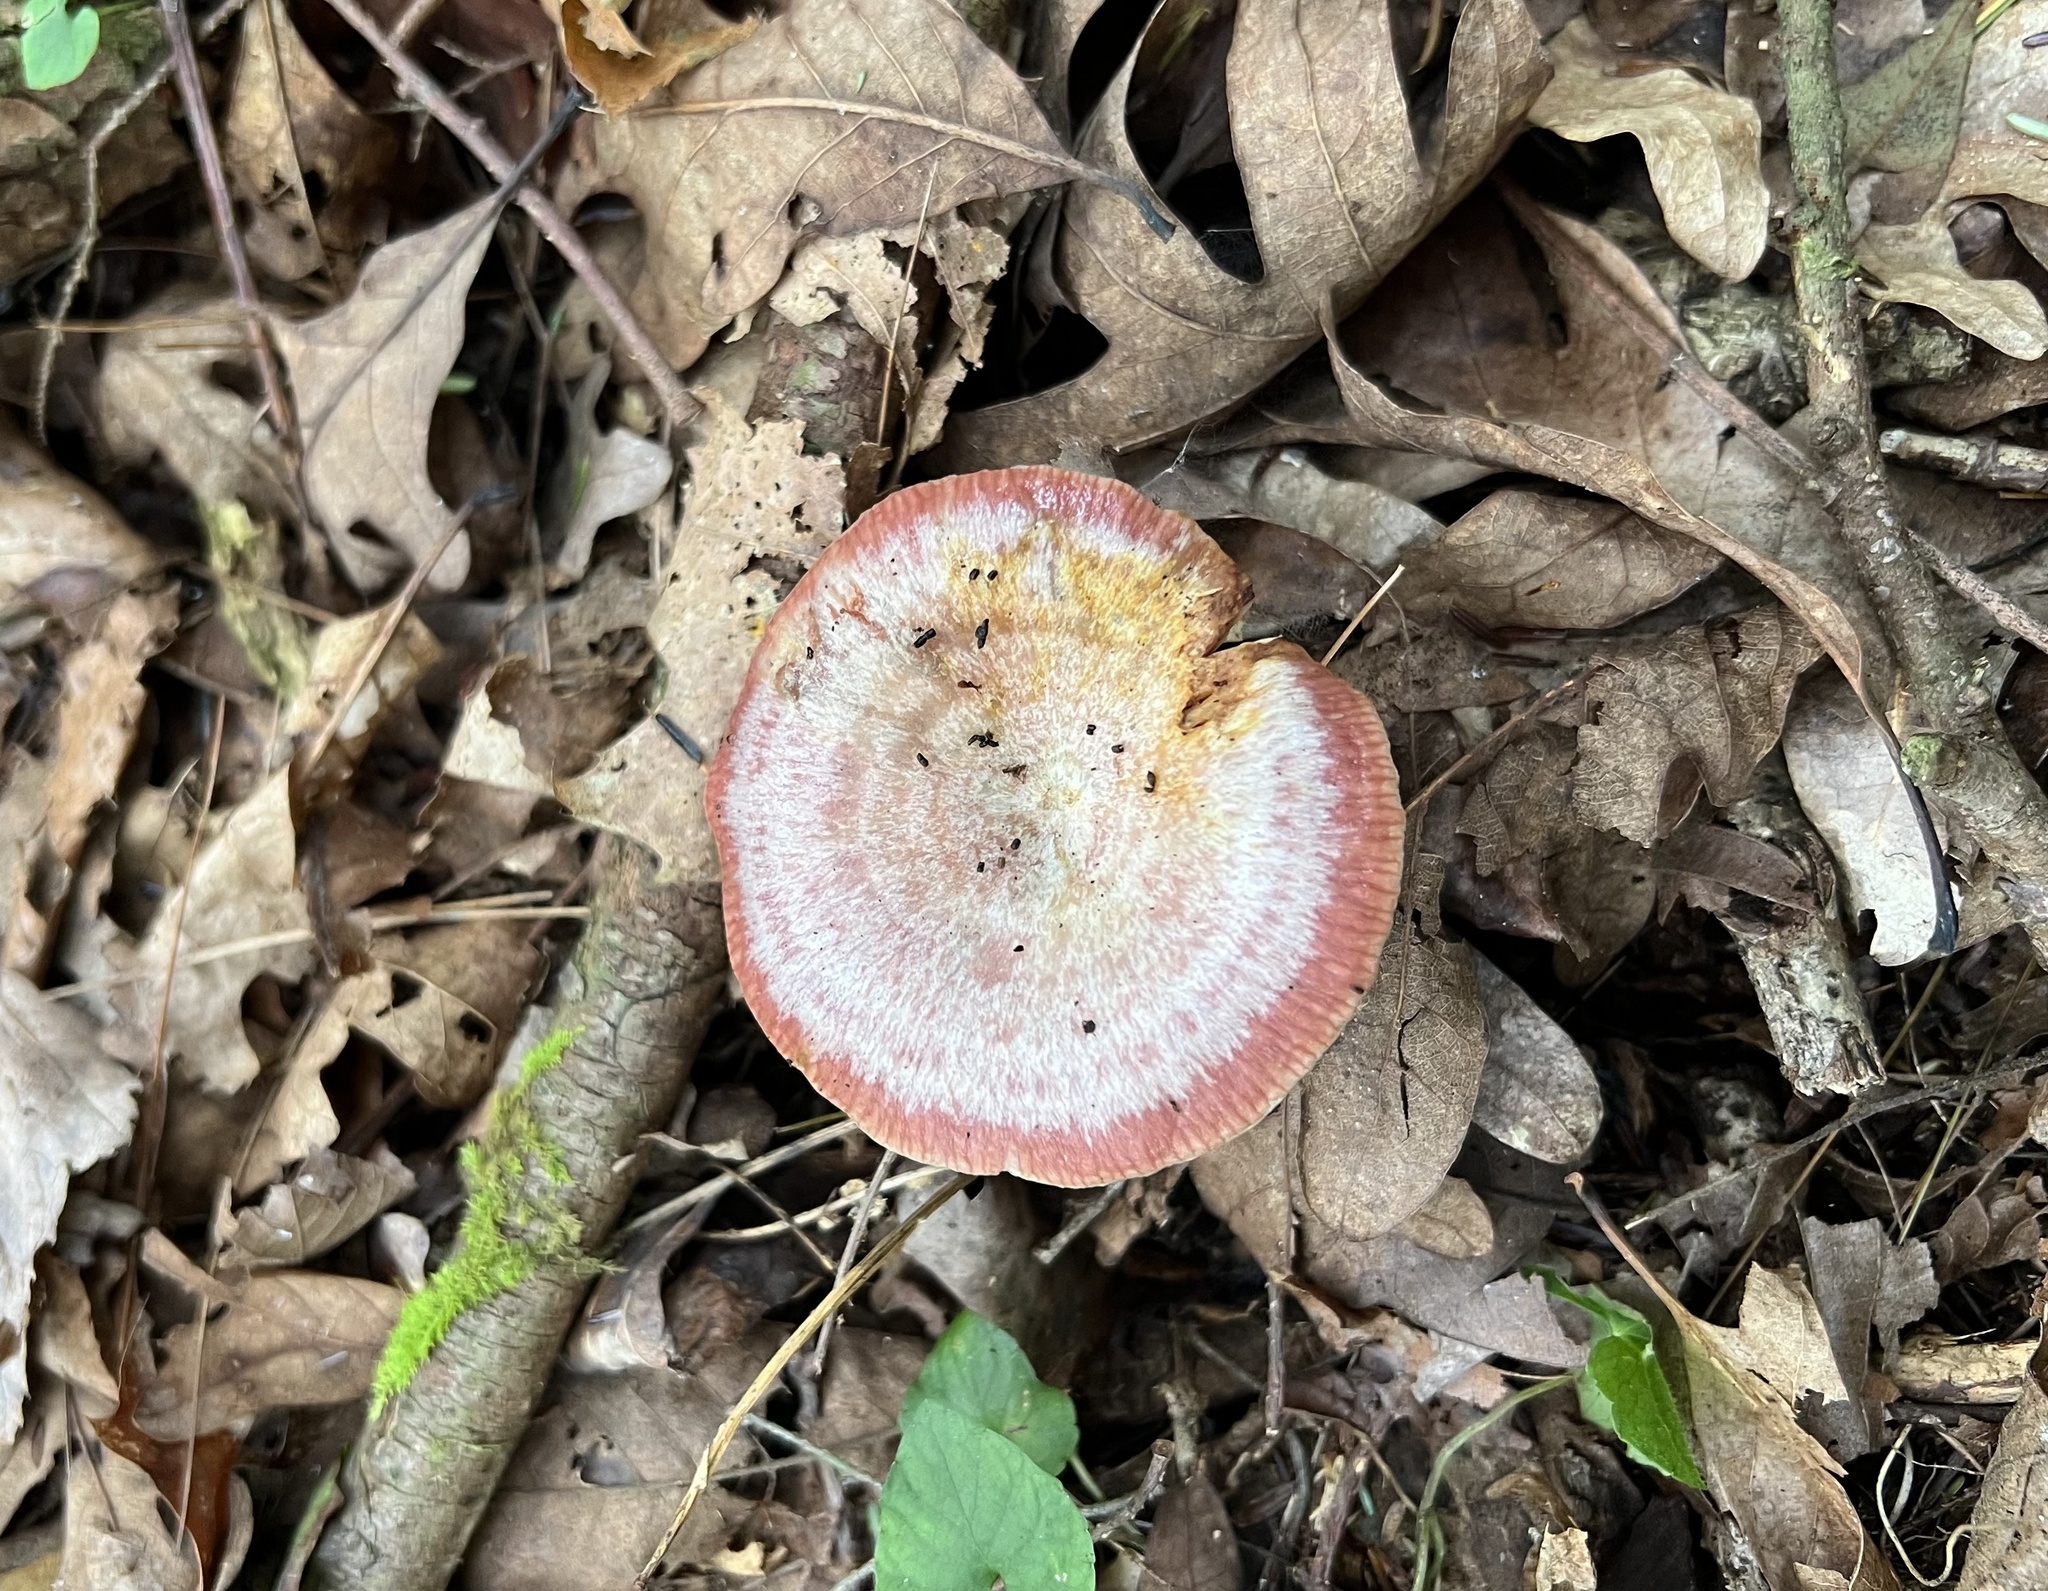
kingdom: Fungi
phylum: Basidiomycota
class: Agaricomycetes
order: Russulales
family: Russulaceae
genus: Lactarius
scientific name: Lactarius subpurpureus
